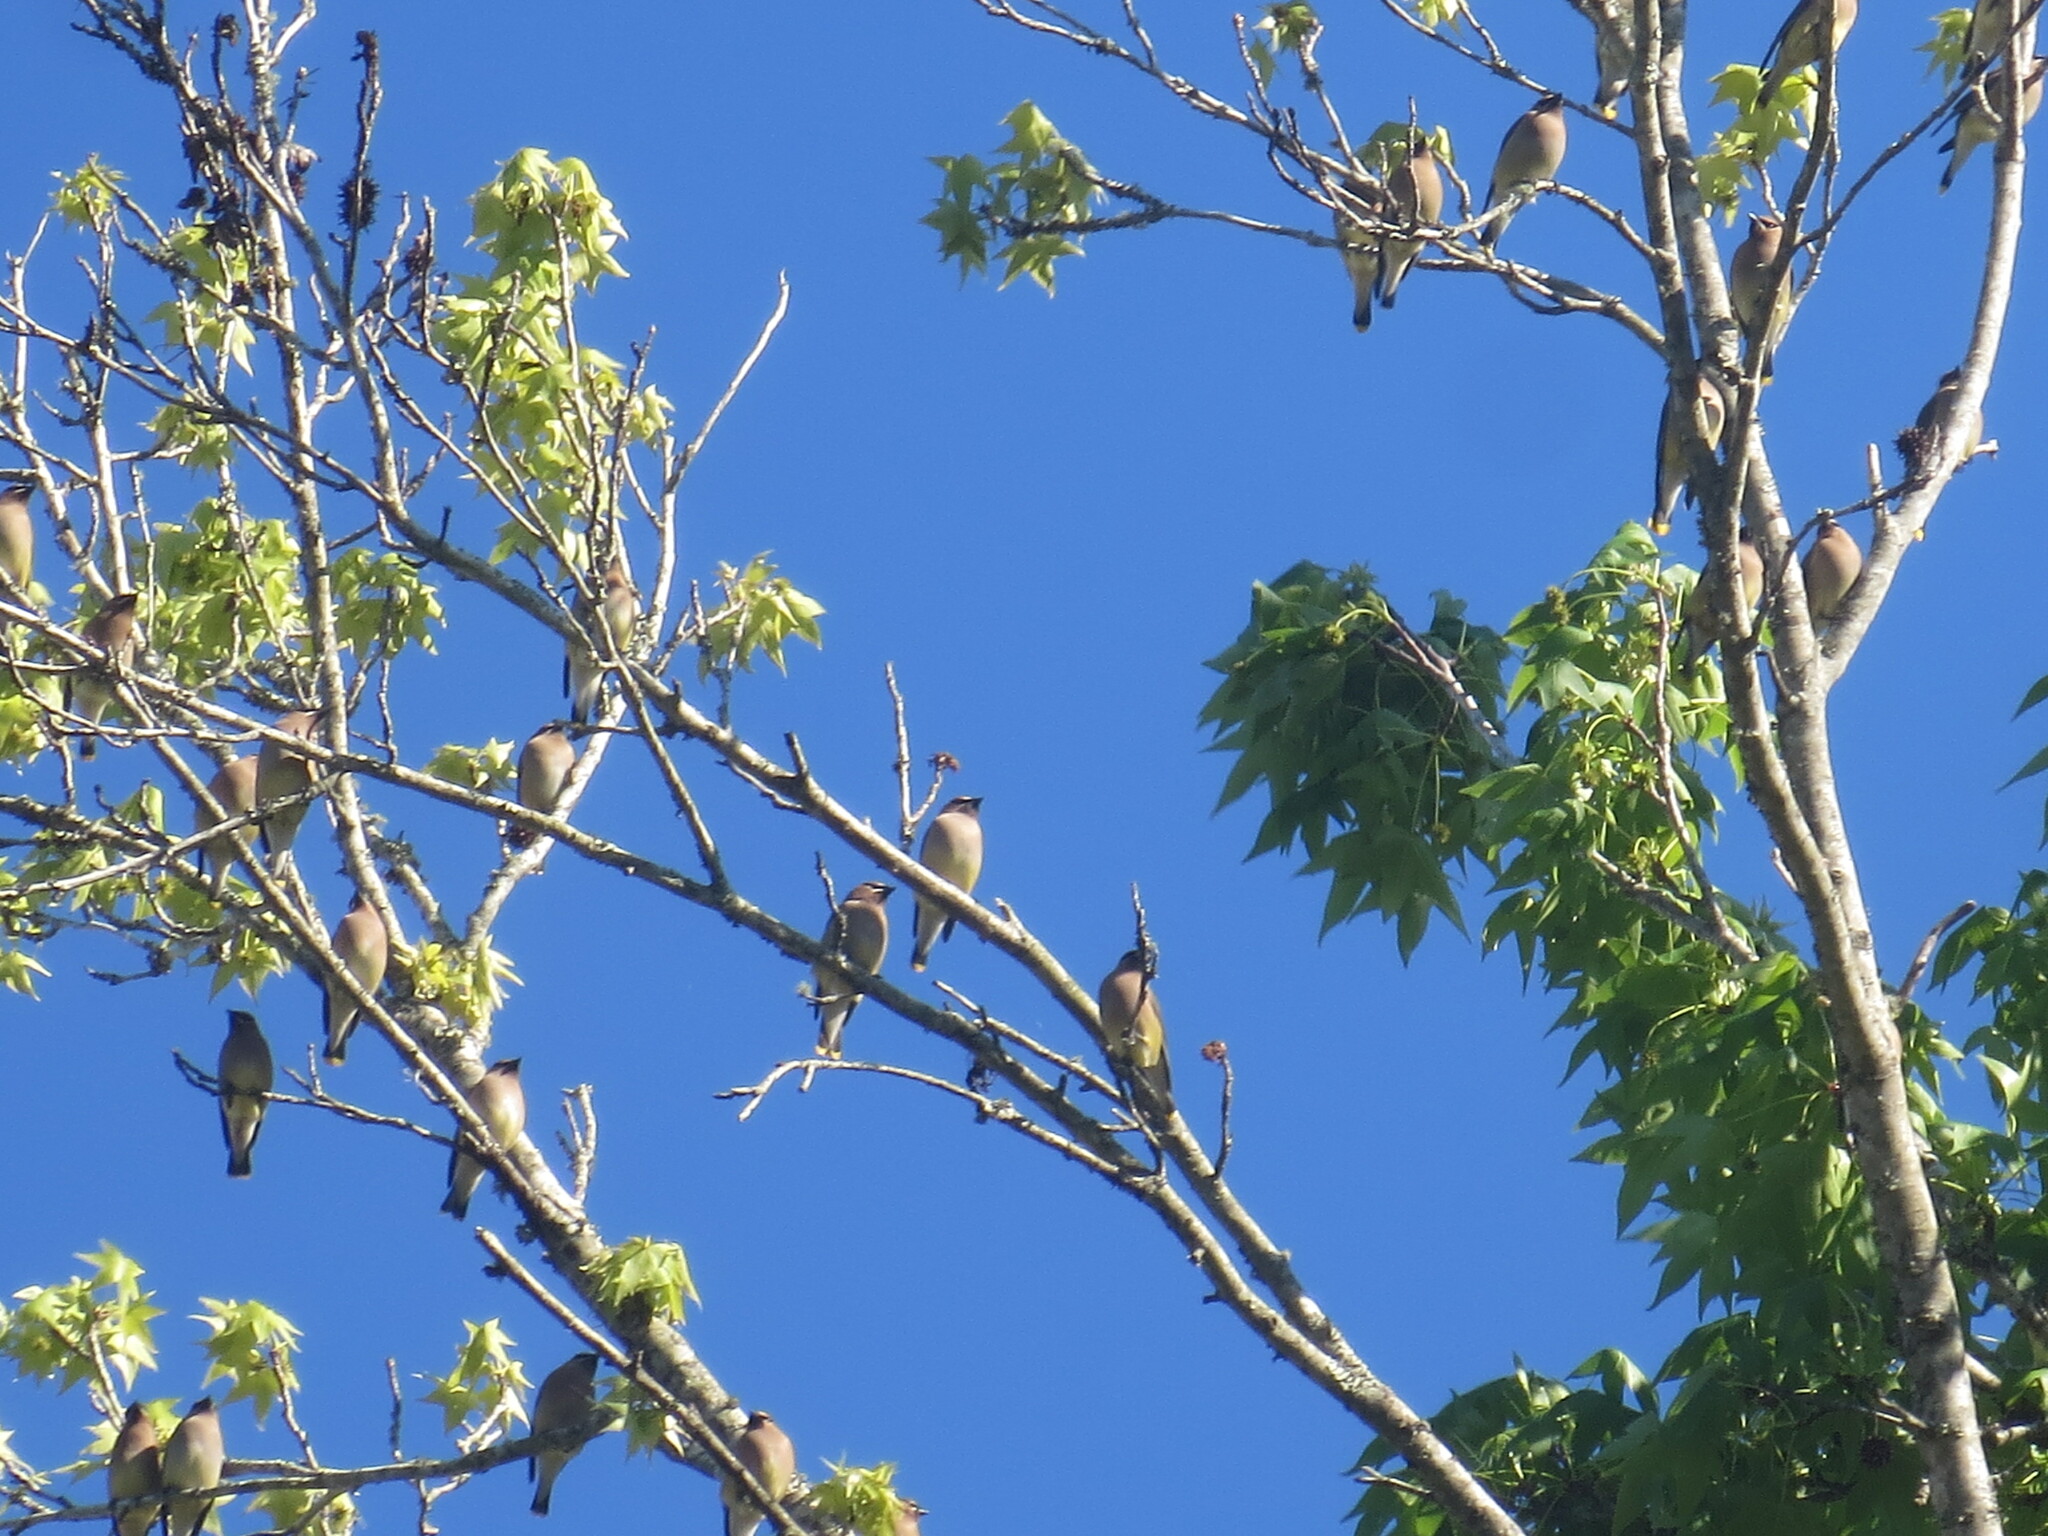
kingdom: Animalia
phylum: Chordata
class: Aves
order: Passeriformes
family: Bombycillidae
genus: Bombycilla
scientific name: Bombycilla cedrorum
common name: Cedar waxwing
